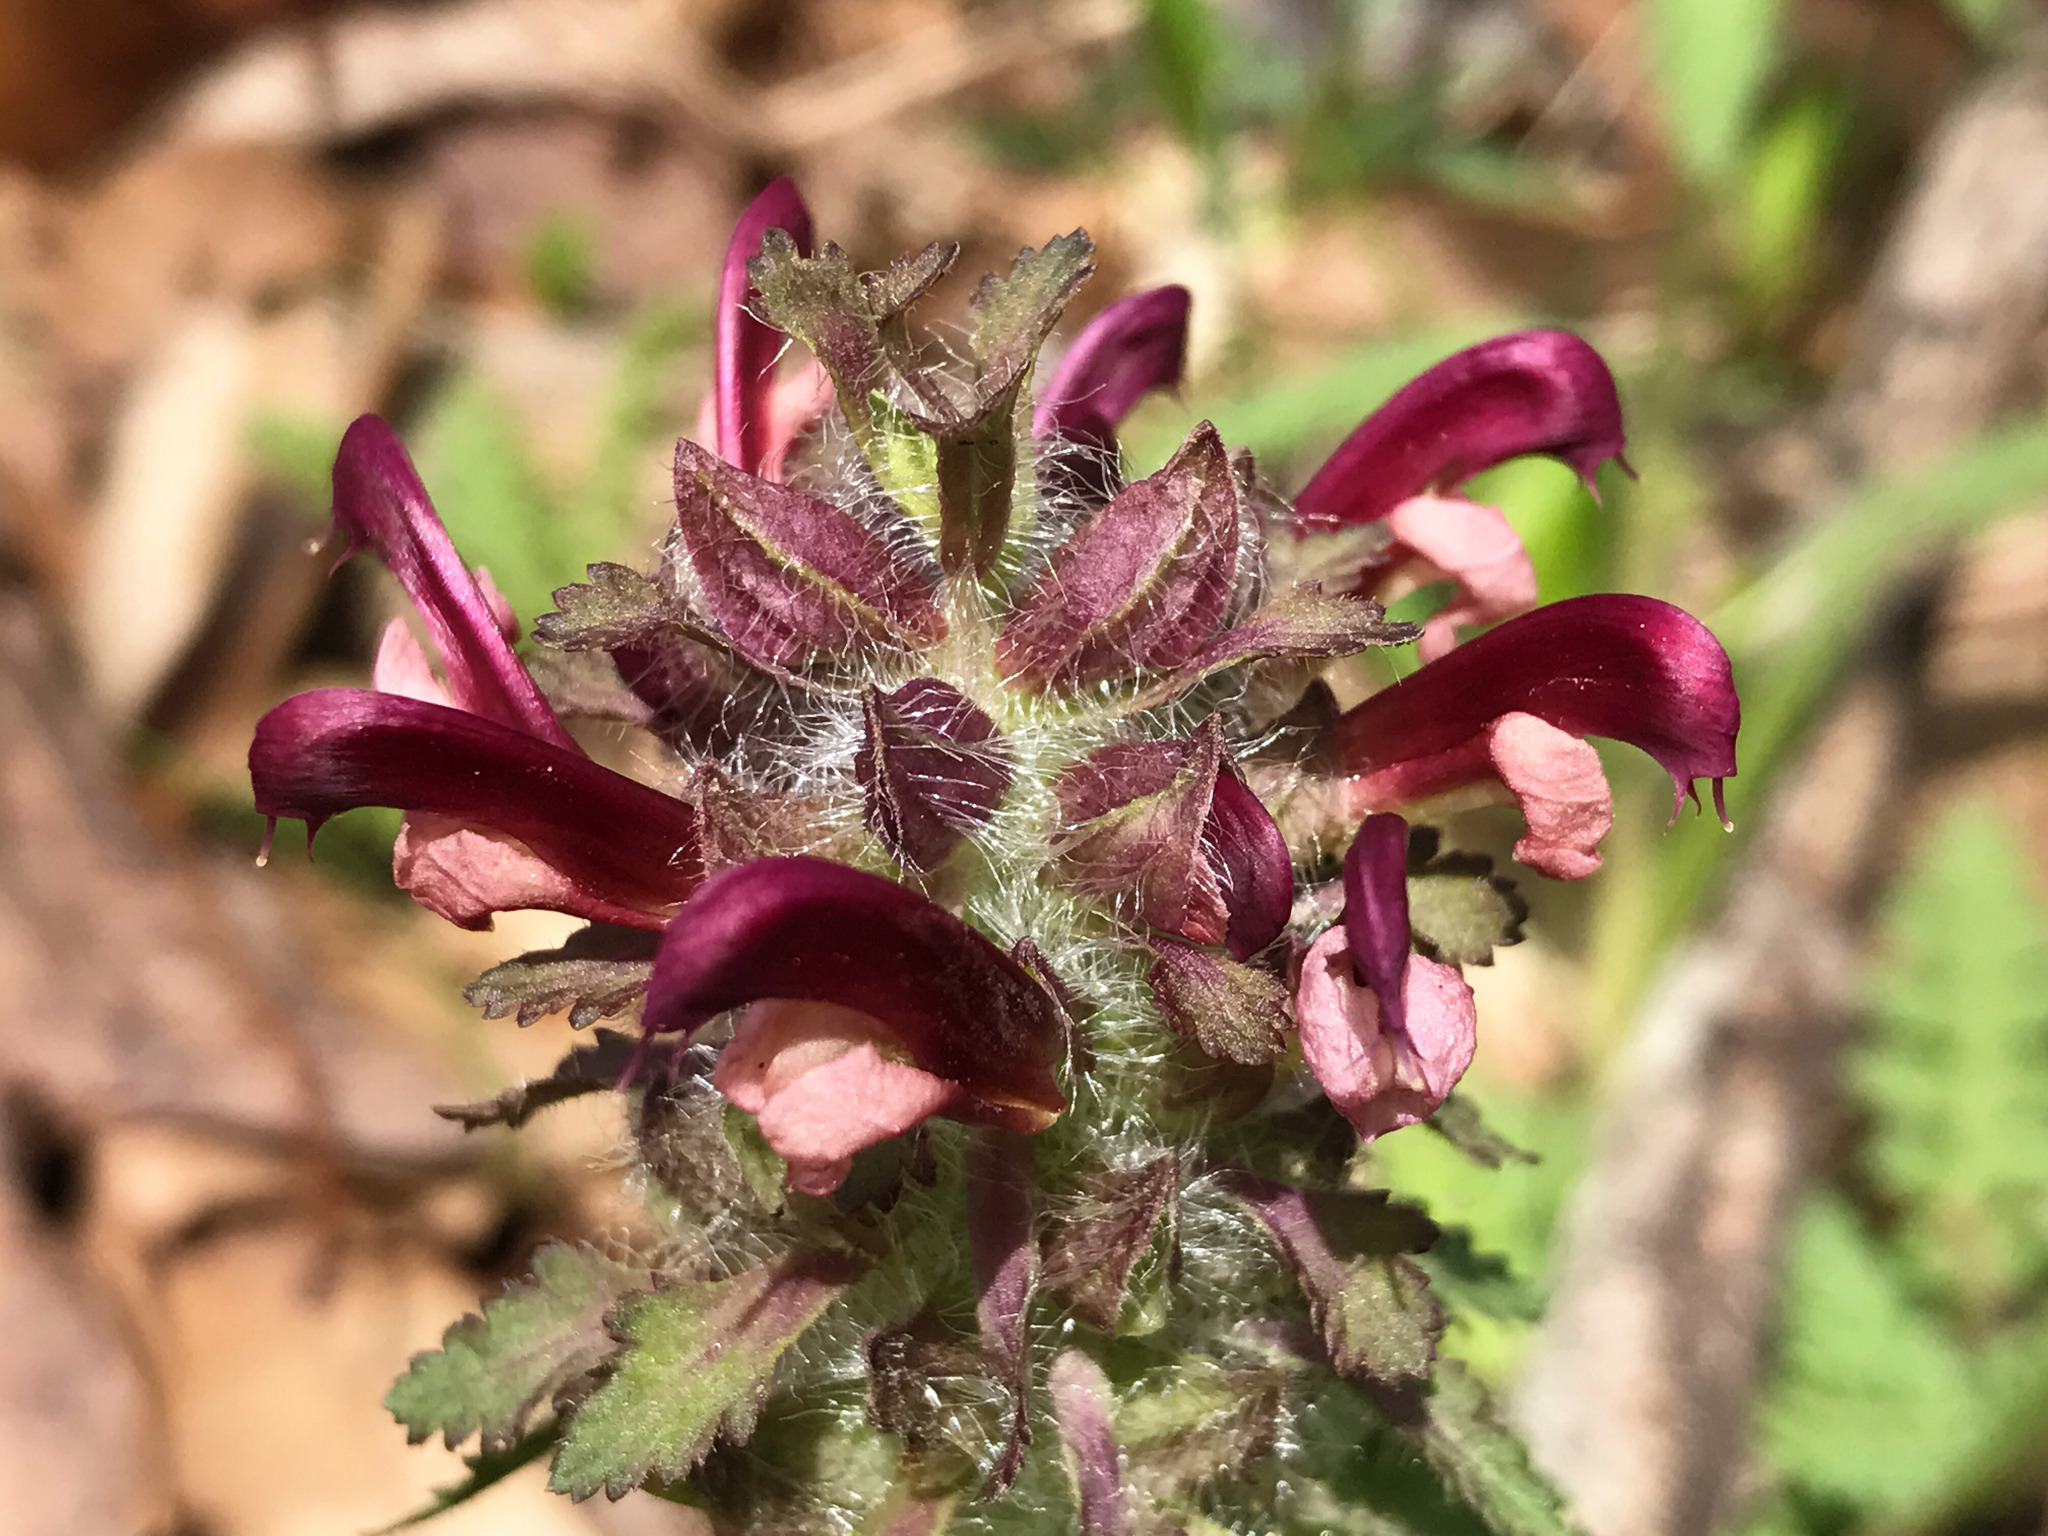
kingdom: Plantae
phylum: Tracheophyta
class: Magnoliopsida
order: Lamiales
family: Orobanchaceae
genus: Pedicularis
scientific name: Pedicularis canadensis
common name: Early lousewort
